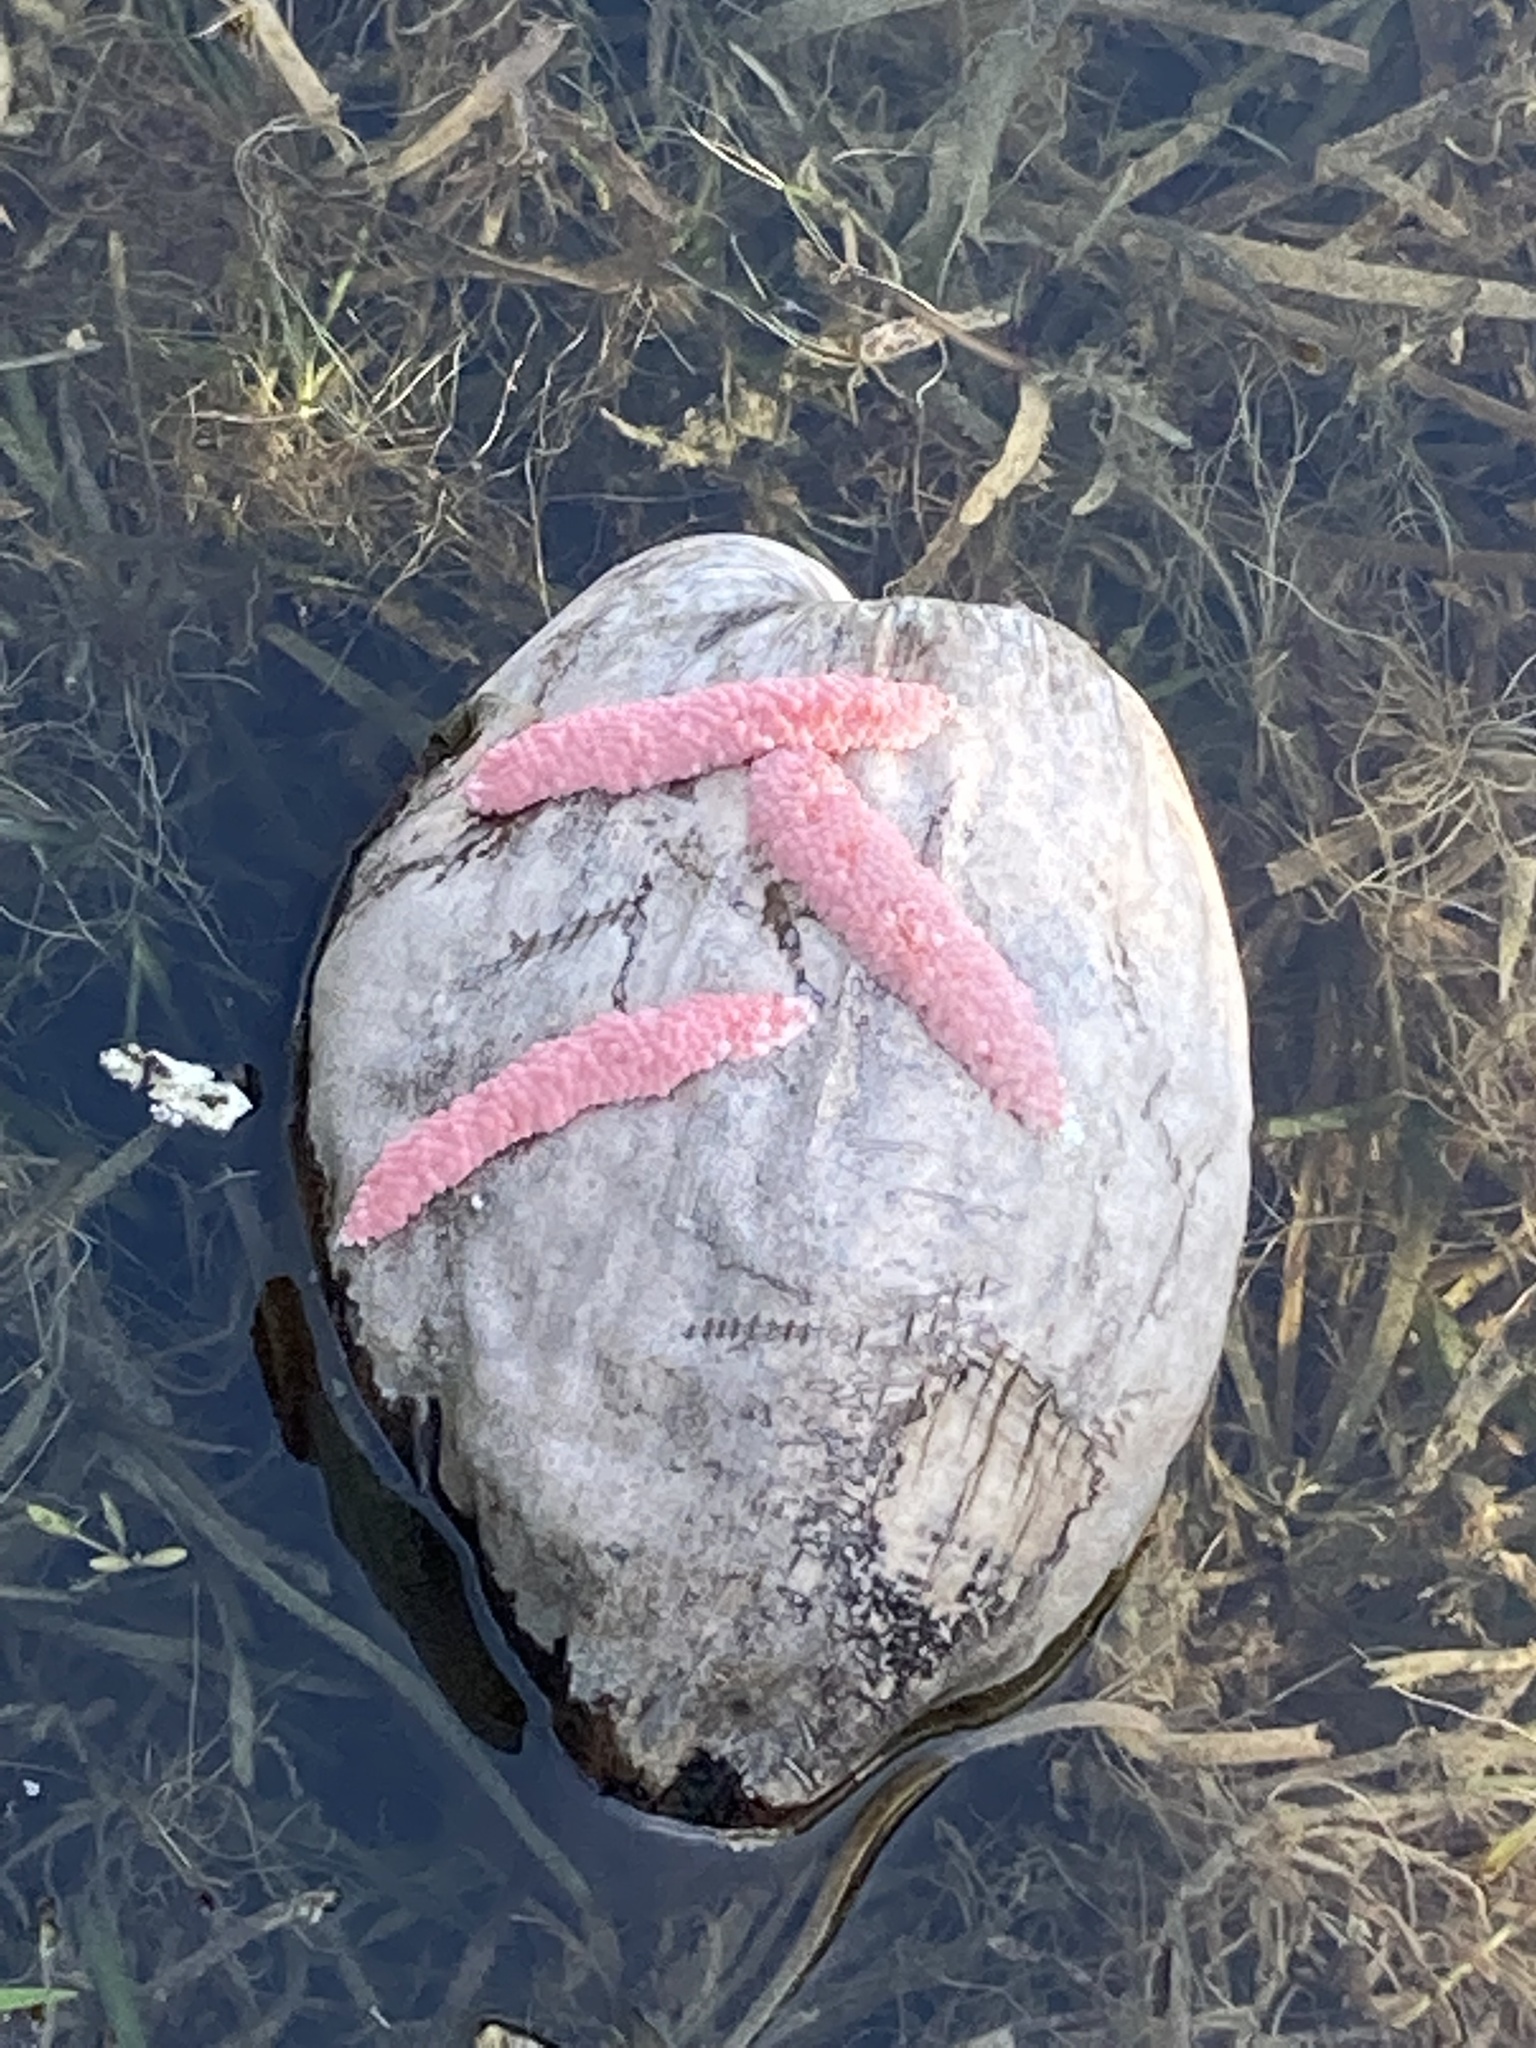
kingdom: Animalia
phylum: Mollusca
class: Gastropoda
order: Architaenioglossa
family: Ampullariidae
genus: Pomacea
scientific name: Pomacea maculata
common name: Giant applesnail
